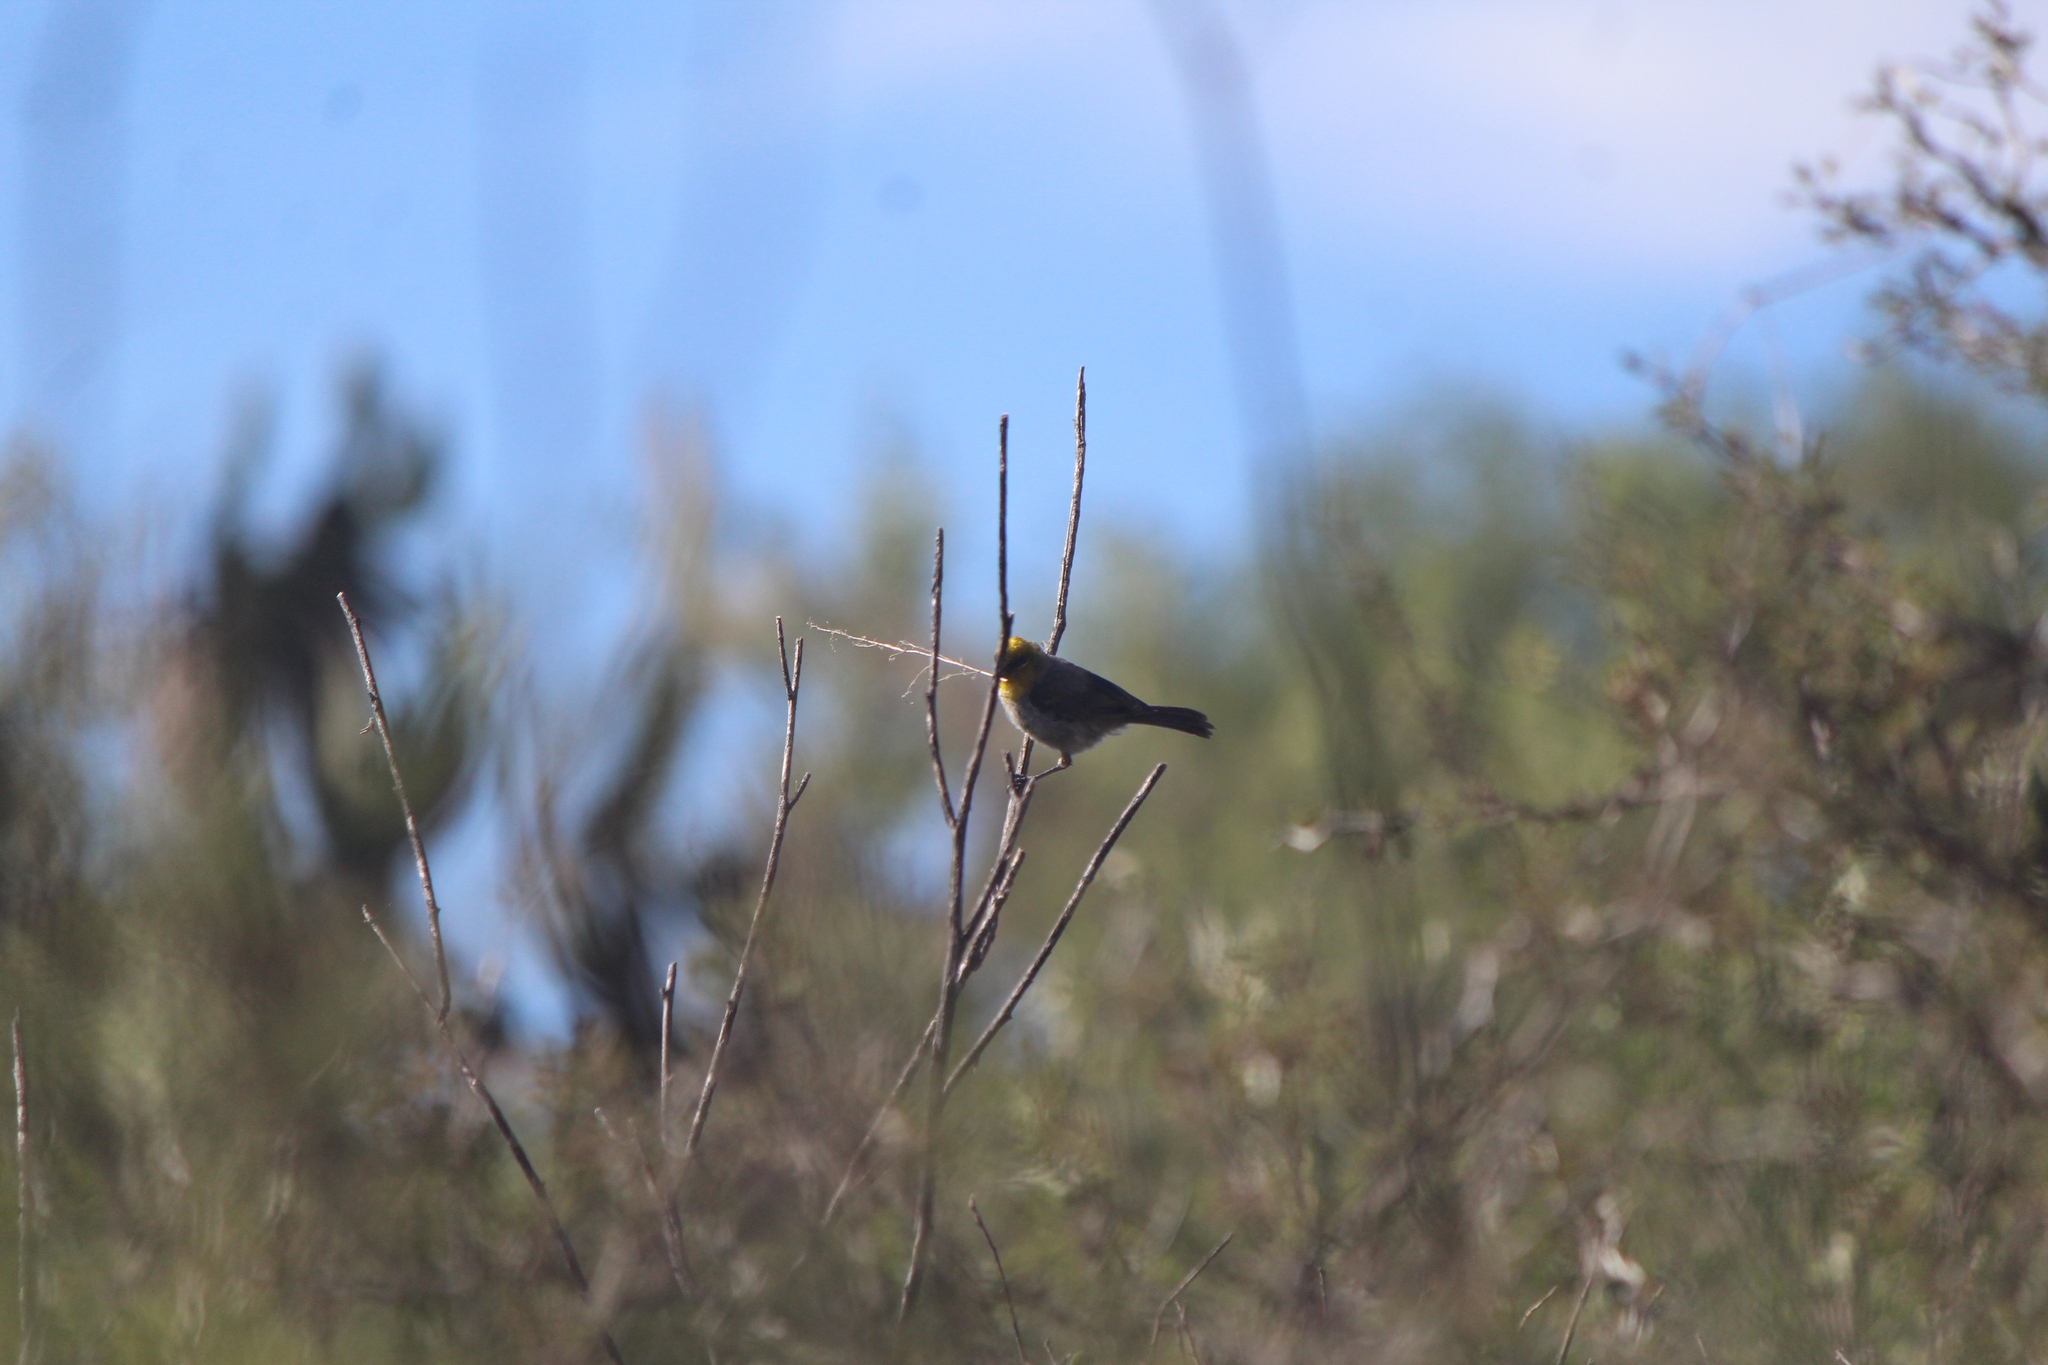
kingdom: Animalia
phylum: Chordata
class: Aves
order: Passeriformes
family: Remizidae
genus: Auriparus
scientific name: Auriparus flaviceps
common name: Verdin
